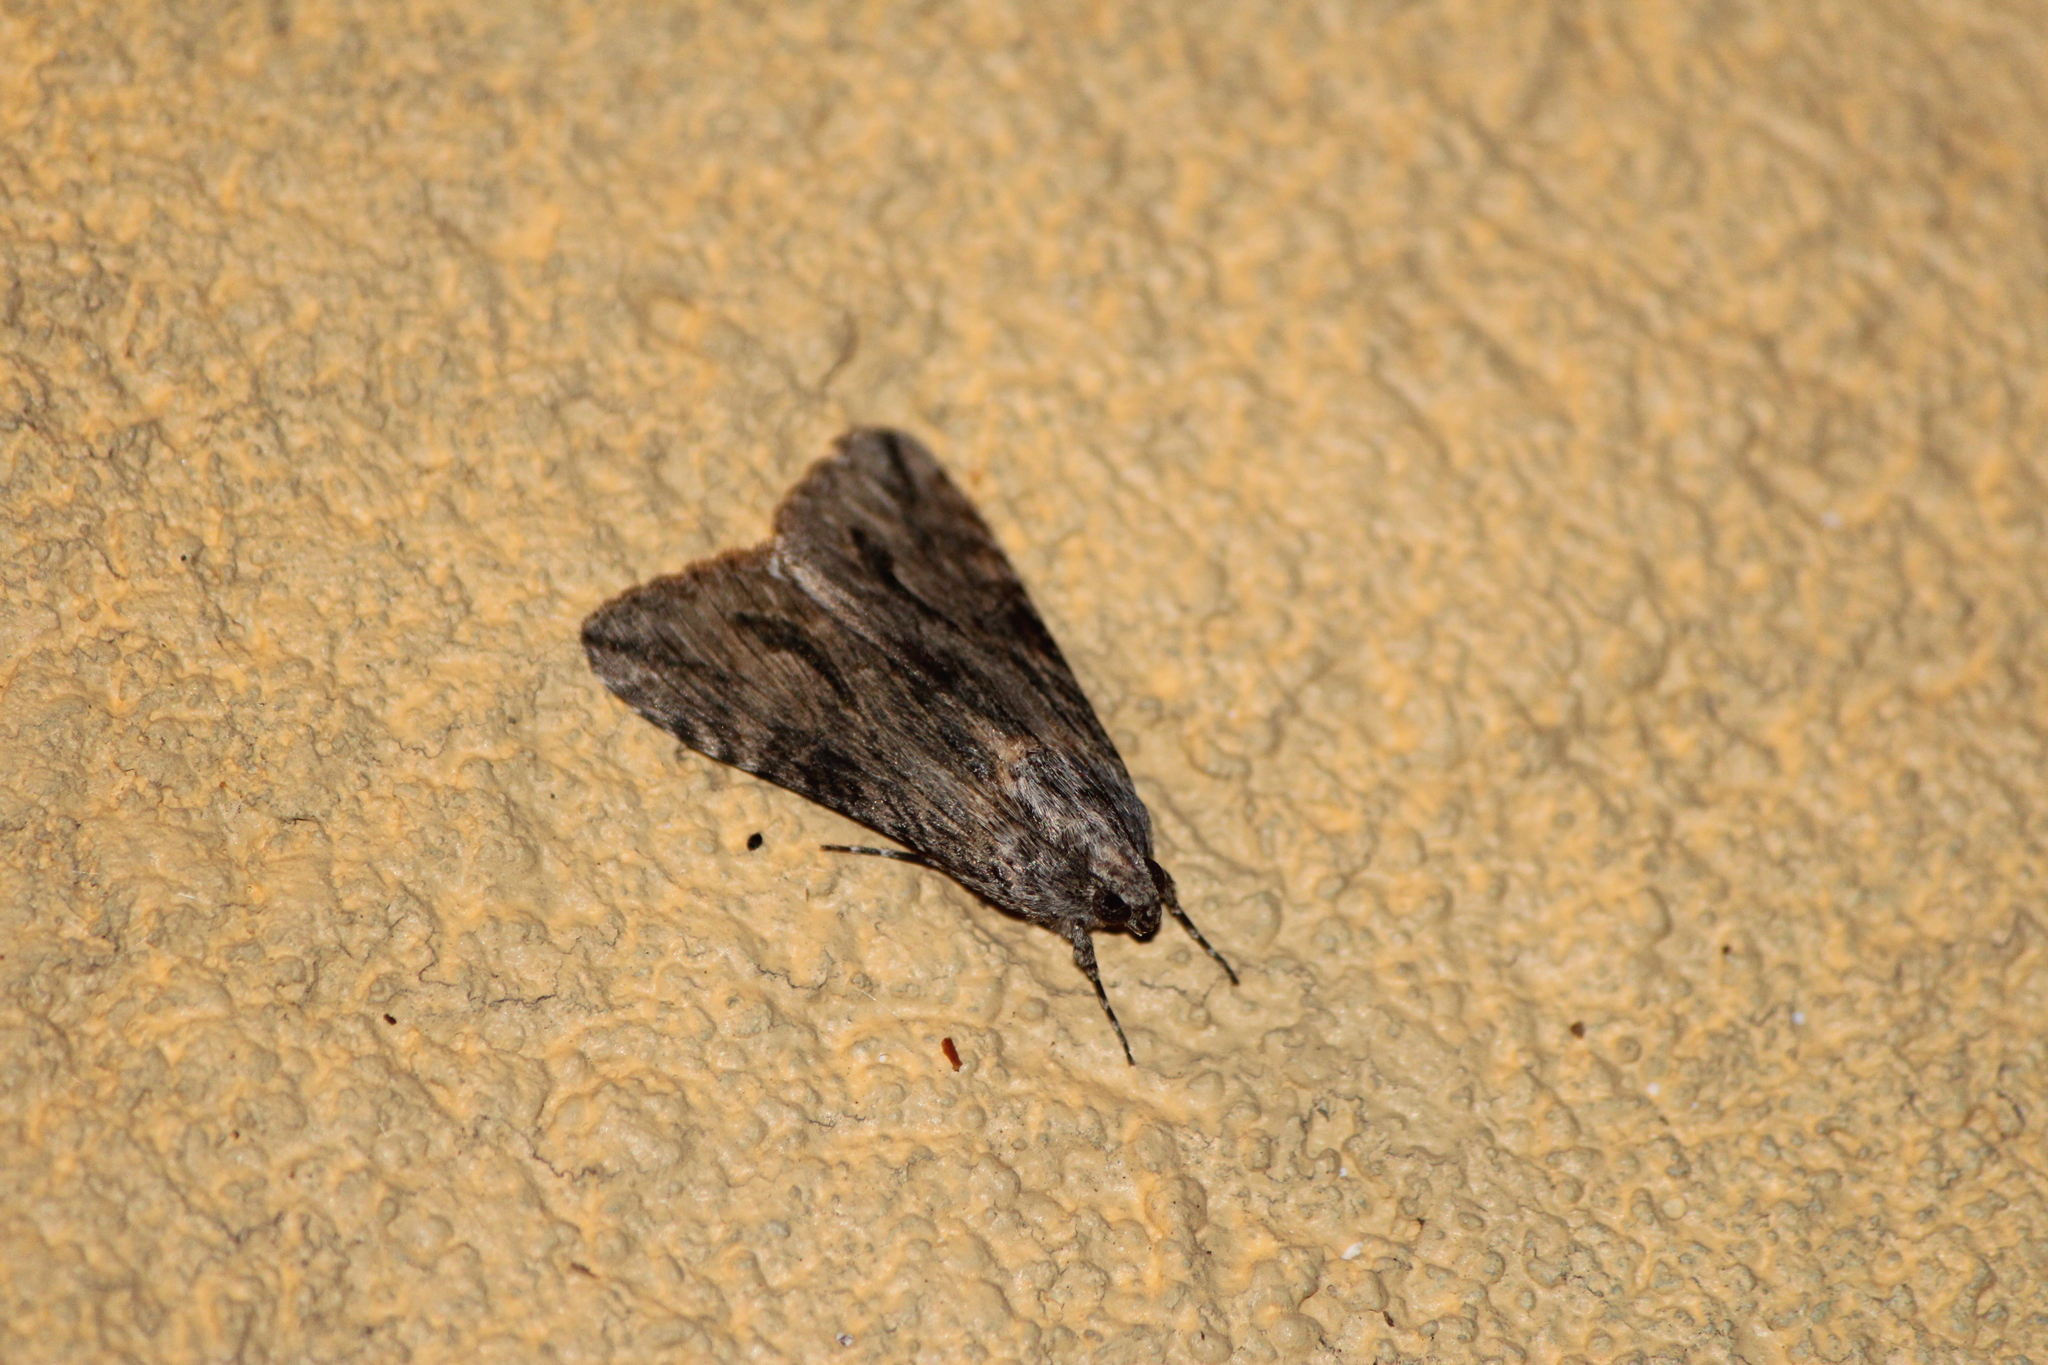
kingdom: Animalia
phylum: Arthropoda
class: Insecta
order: Lepidoptera
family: Erebidae
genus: Melipotis
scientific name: Melipotis acontioides
